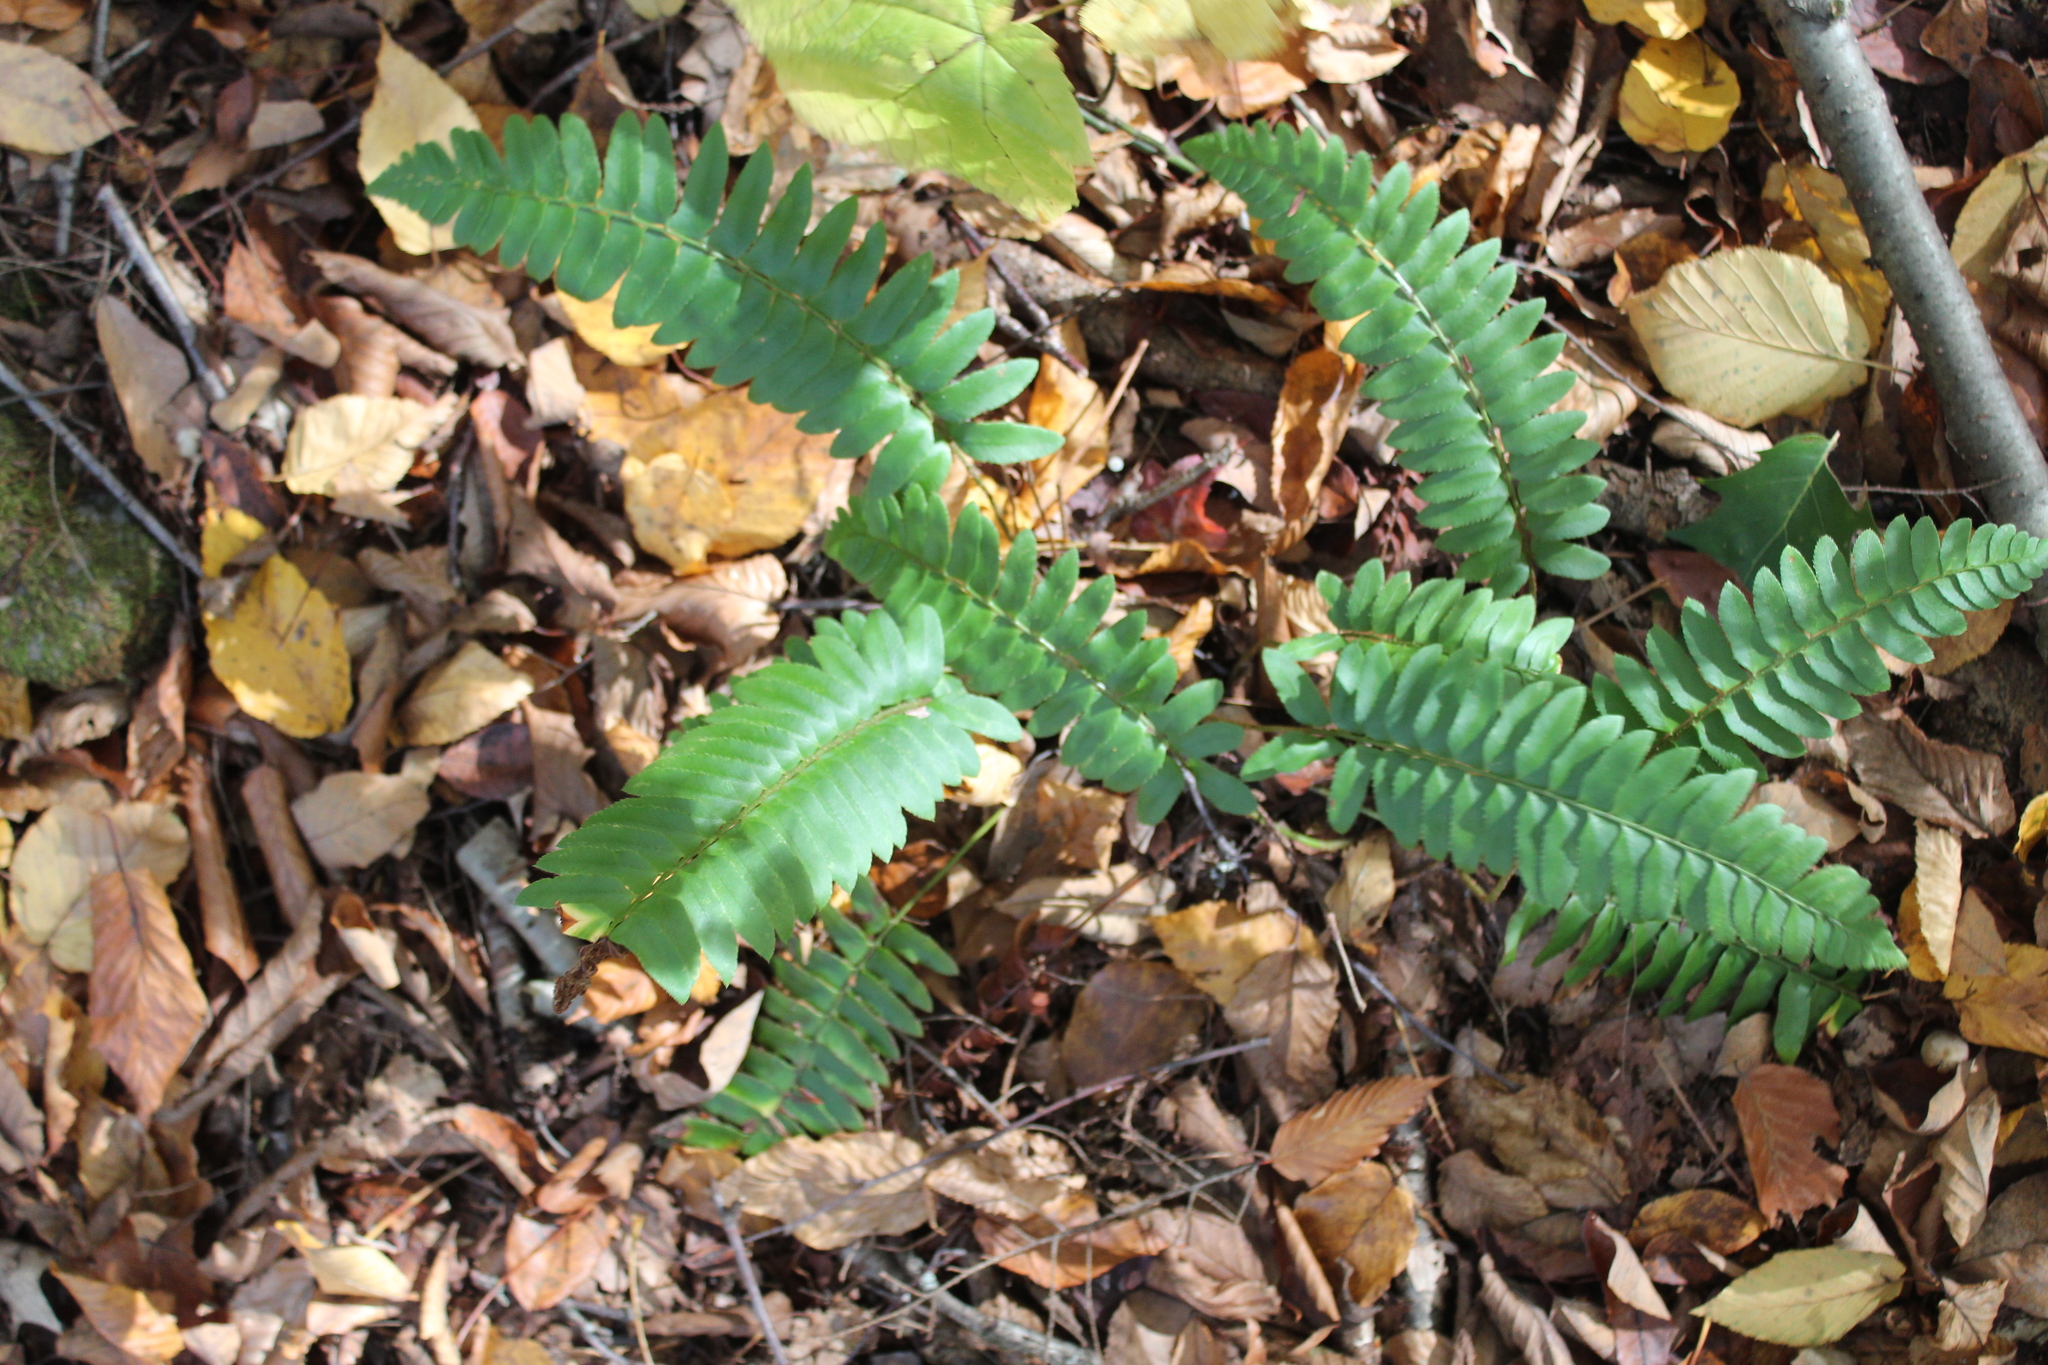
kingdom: Plantae
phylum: Tracheophyta
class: Polypodiopsida
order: Polypodiales
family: Dryopteridaceae
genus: Polystichum
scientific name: Polystichum acrostichoides
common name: Christmas fern
